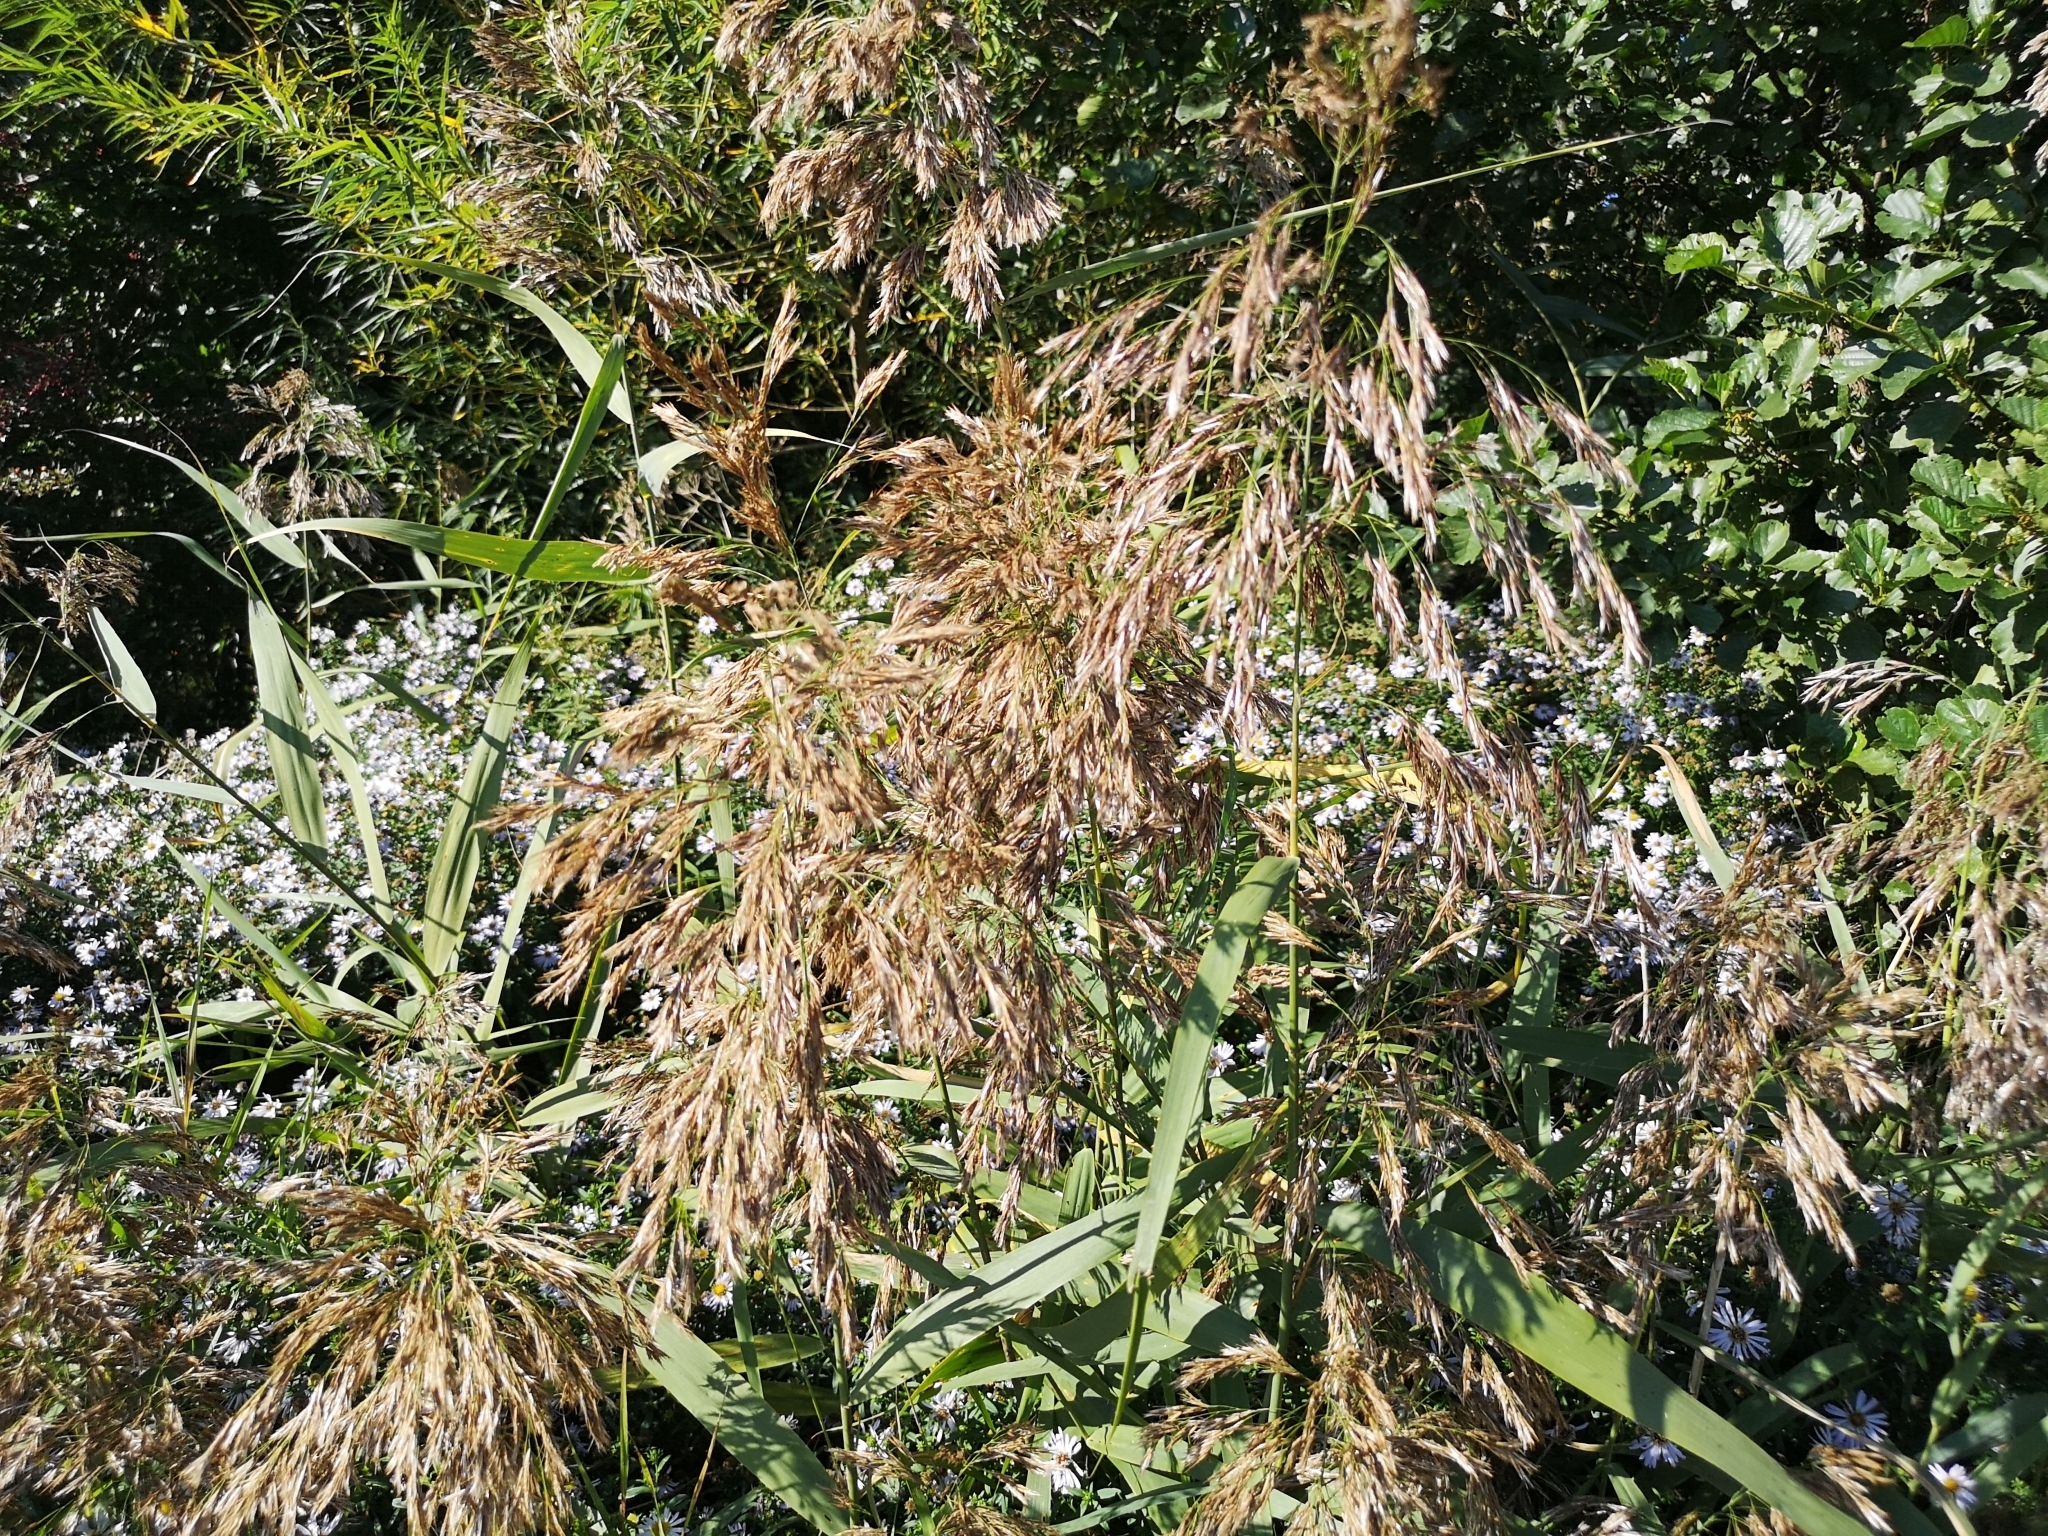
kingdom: Plantae
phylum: Tracheophyta
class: Liliopsida
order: Poales
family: Poaceae
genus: Phragmites
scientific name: Phragmites australis
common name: Common reed
